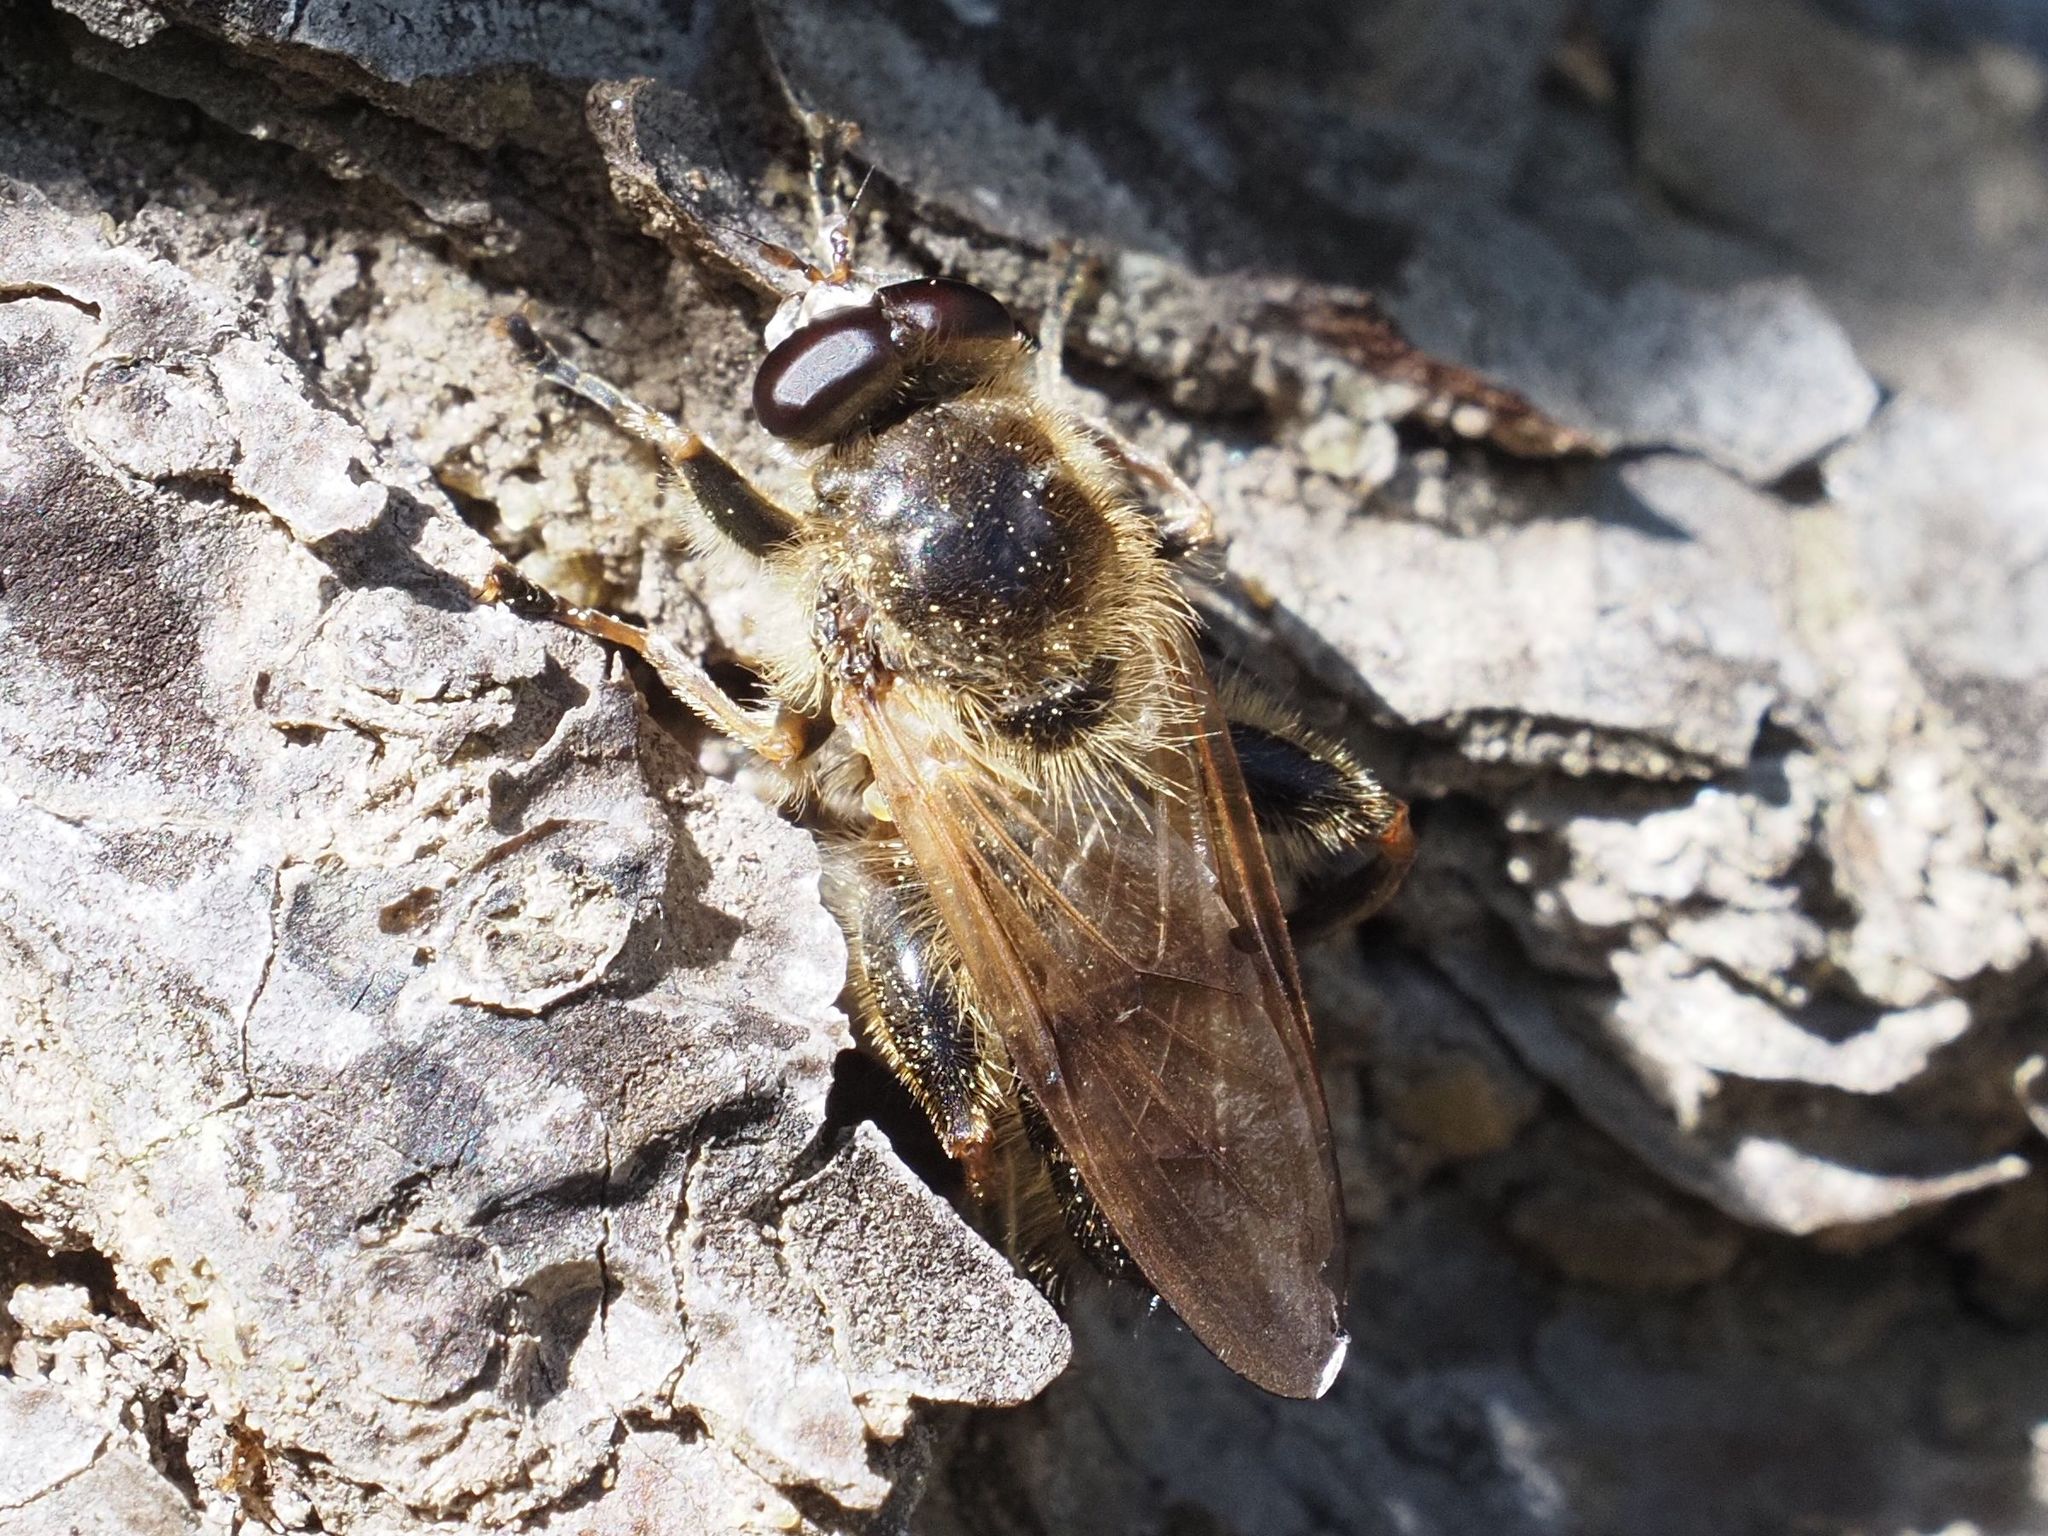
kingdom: Animalia
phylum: Arthropoda
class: Insecta
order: Diptera
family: Syrphidae
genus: Brachypalpus
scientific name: Brachypalpus valgus
